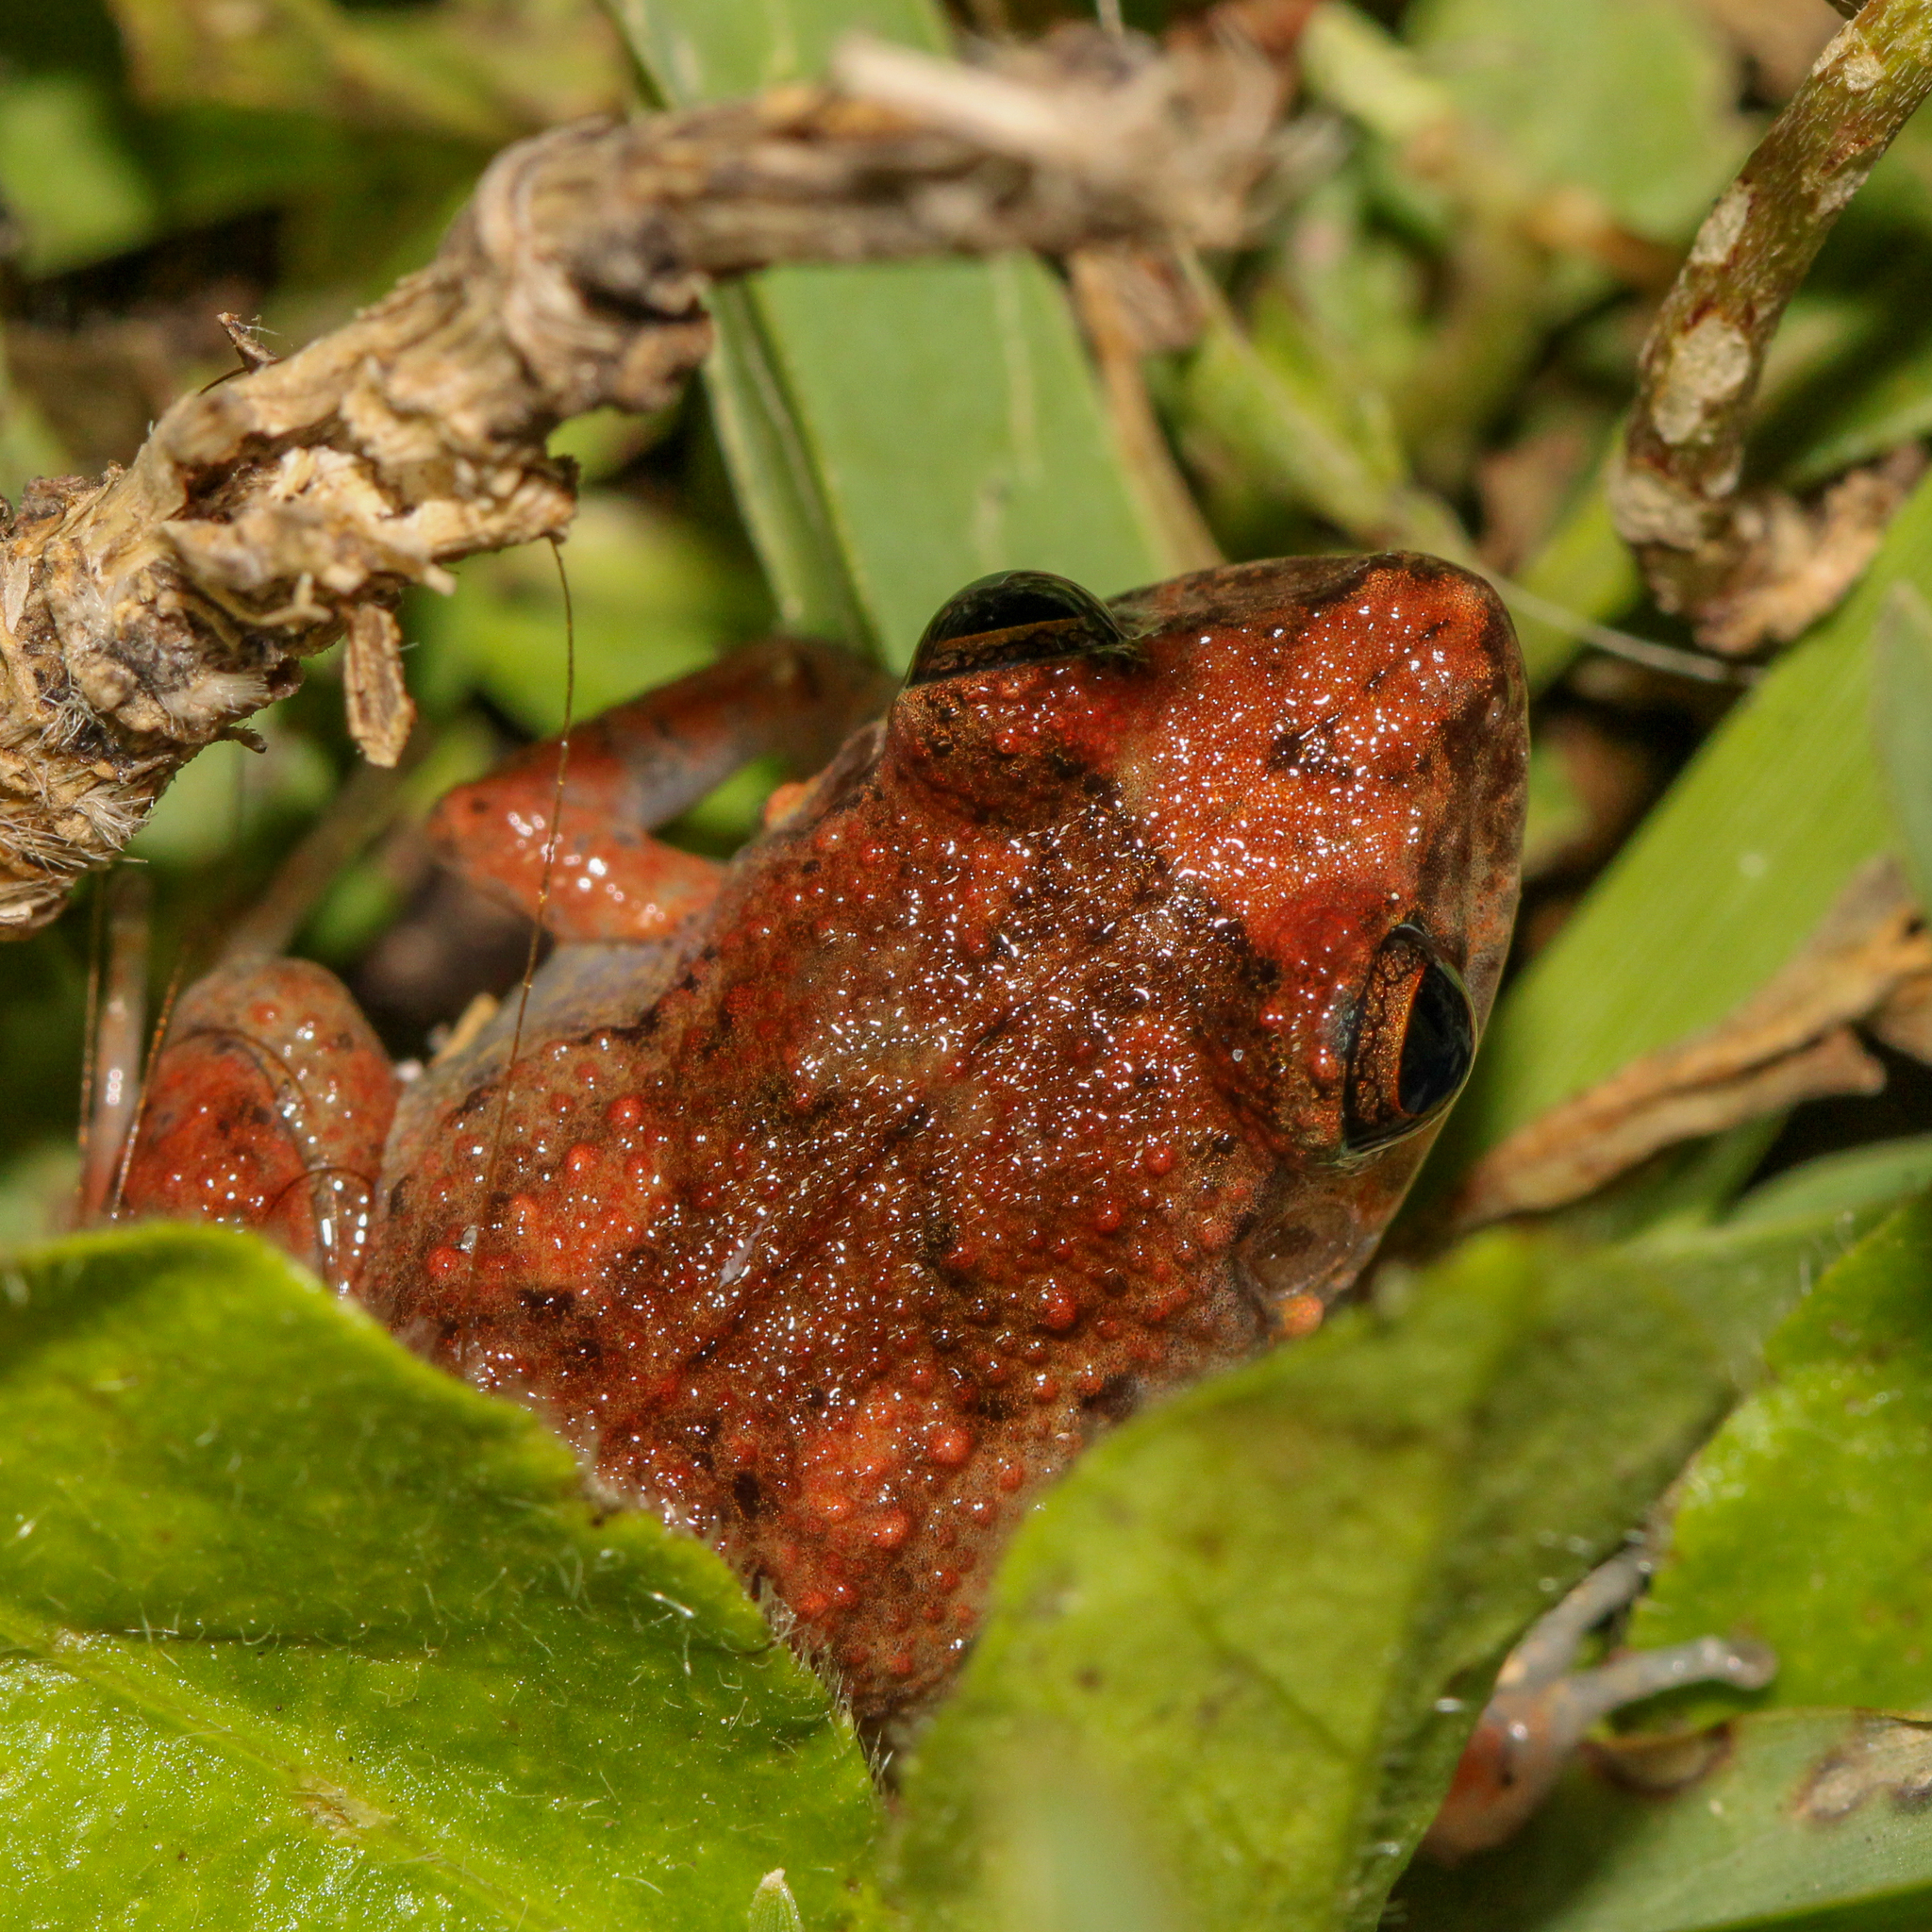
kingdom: Animalia
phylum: Chordata
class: Amphibia
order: Anura
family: Eleutherodactylidae
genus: Eleutherodactylus
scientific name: Eleutherodactylus planirostris
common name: Greenhouse frog
